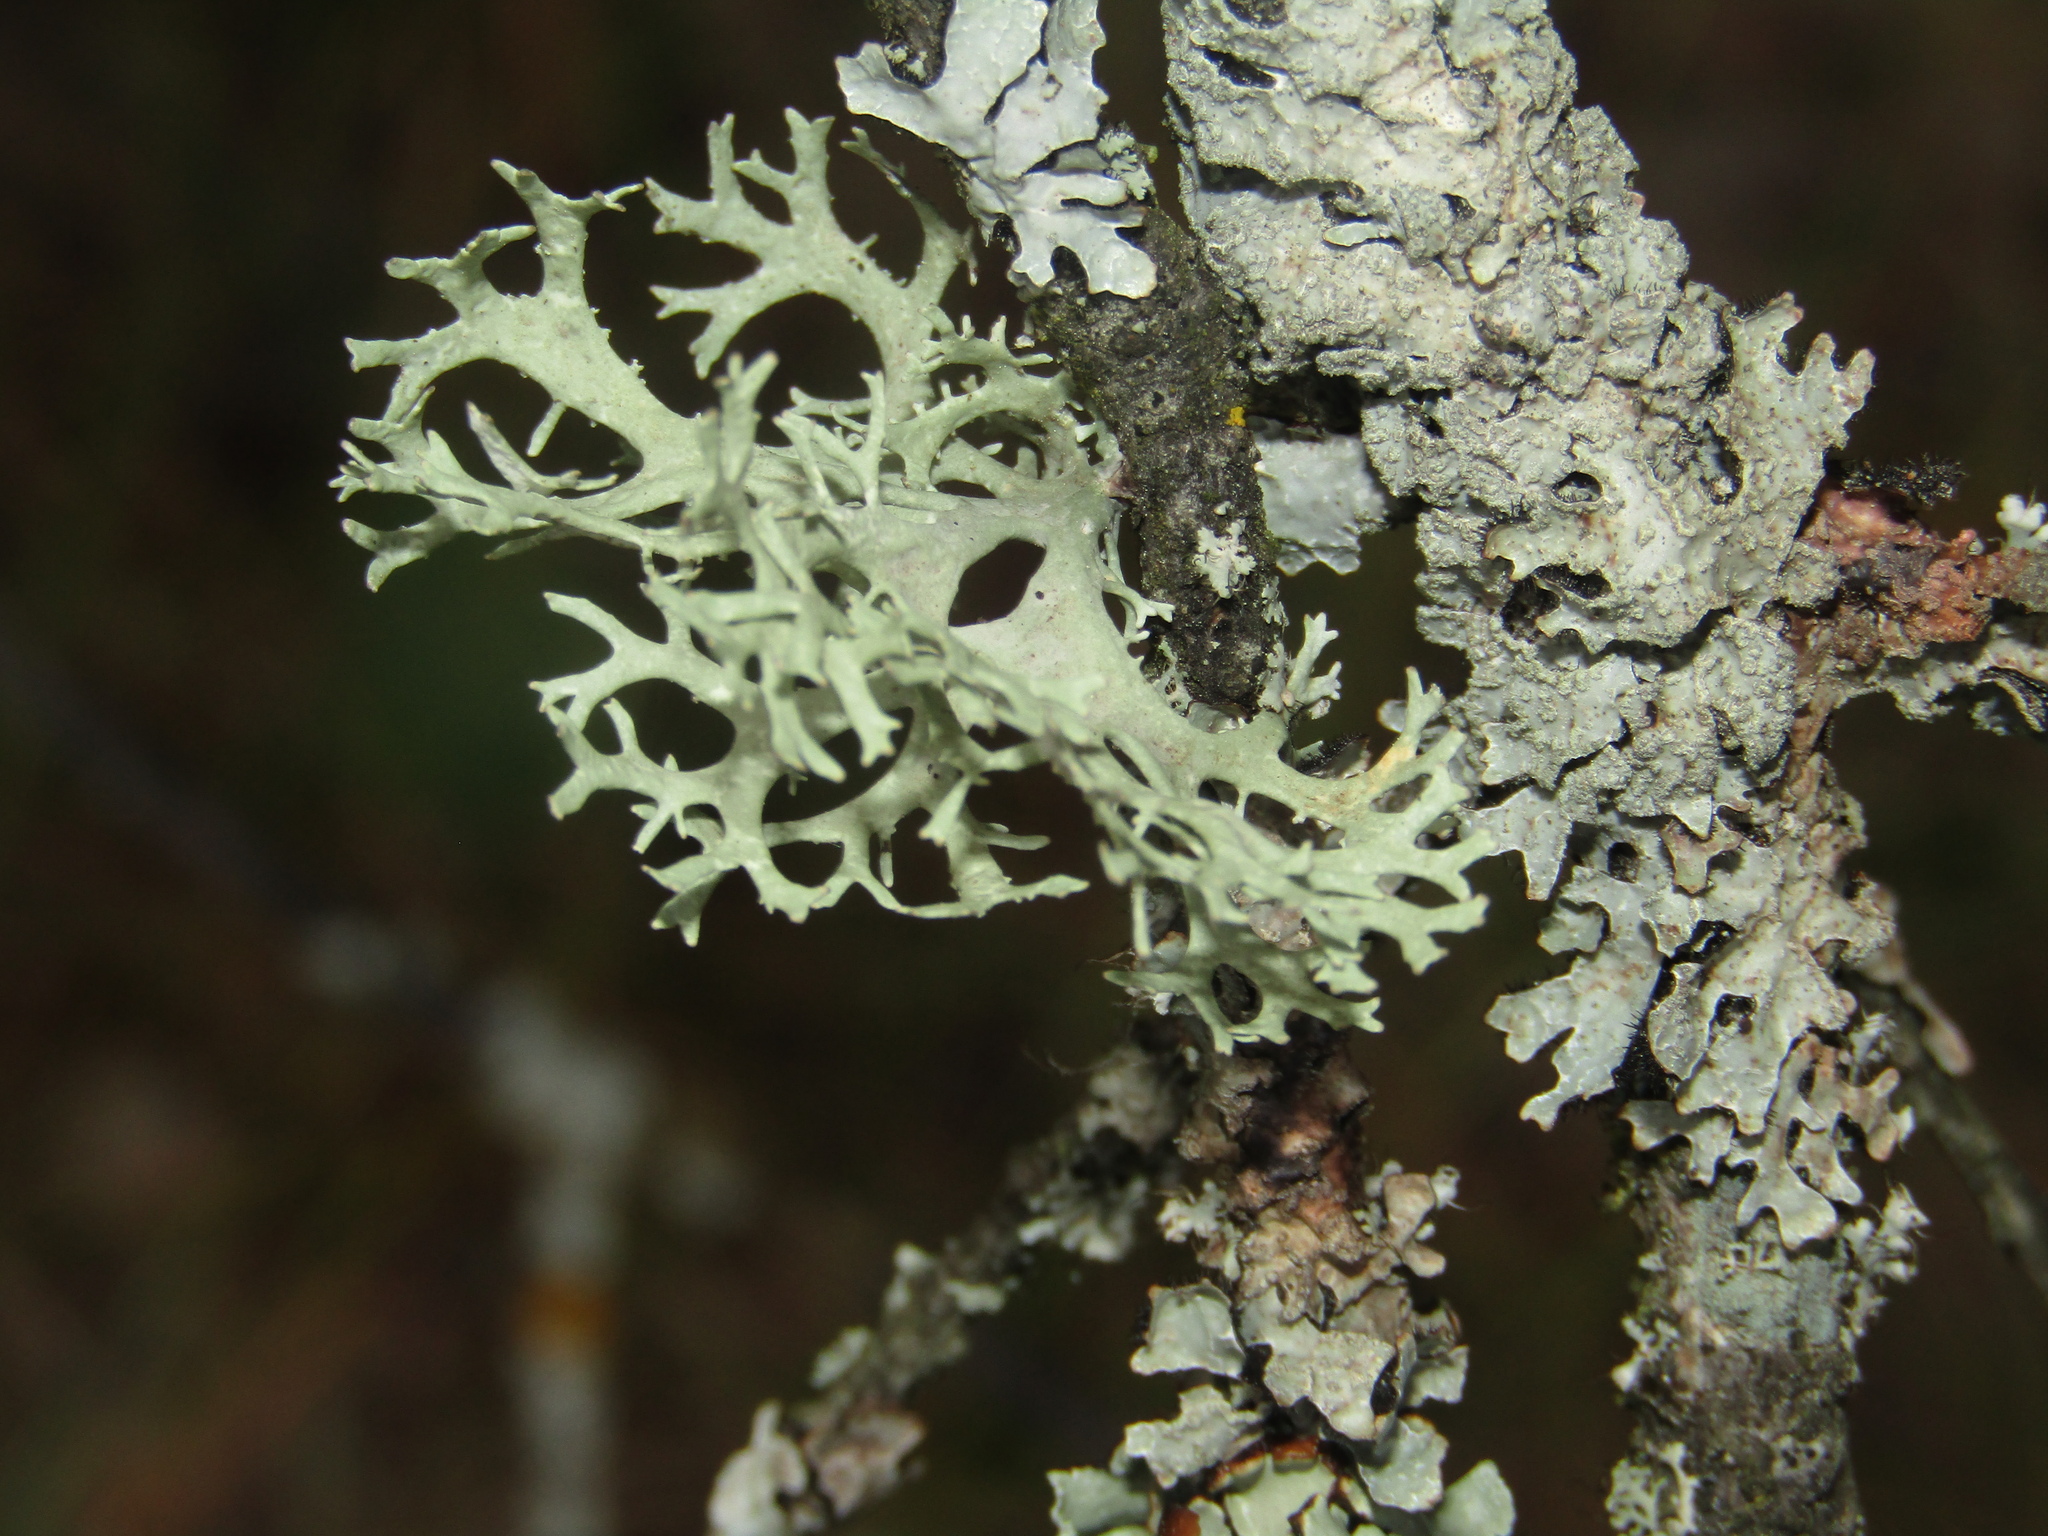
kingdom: Fungi
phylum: Ascomycota
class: Lecanoromycetes
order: Lecanorales
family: Parmeliaceae
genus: Evernia
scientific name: Evernia prunastri
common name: Oak moss
